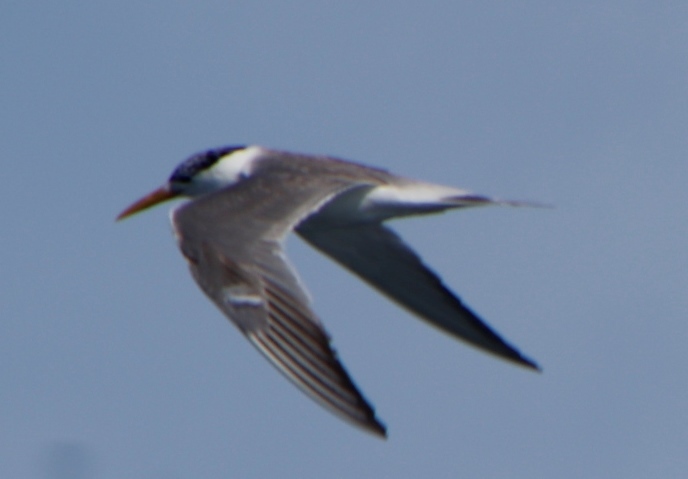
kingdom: Animalia
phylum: Chordata
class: Aves
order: Charadriiformes
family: Laridae
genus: Thalasseus
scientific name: Thalasseus bergii
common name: Greater crested tern
